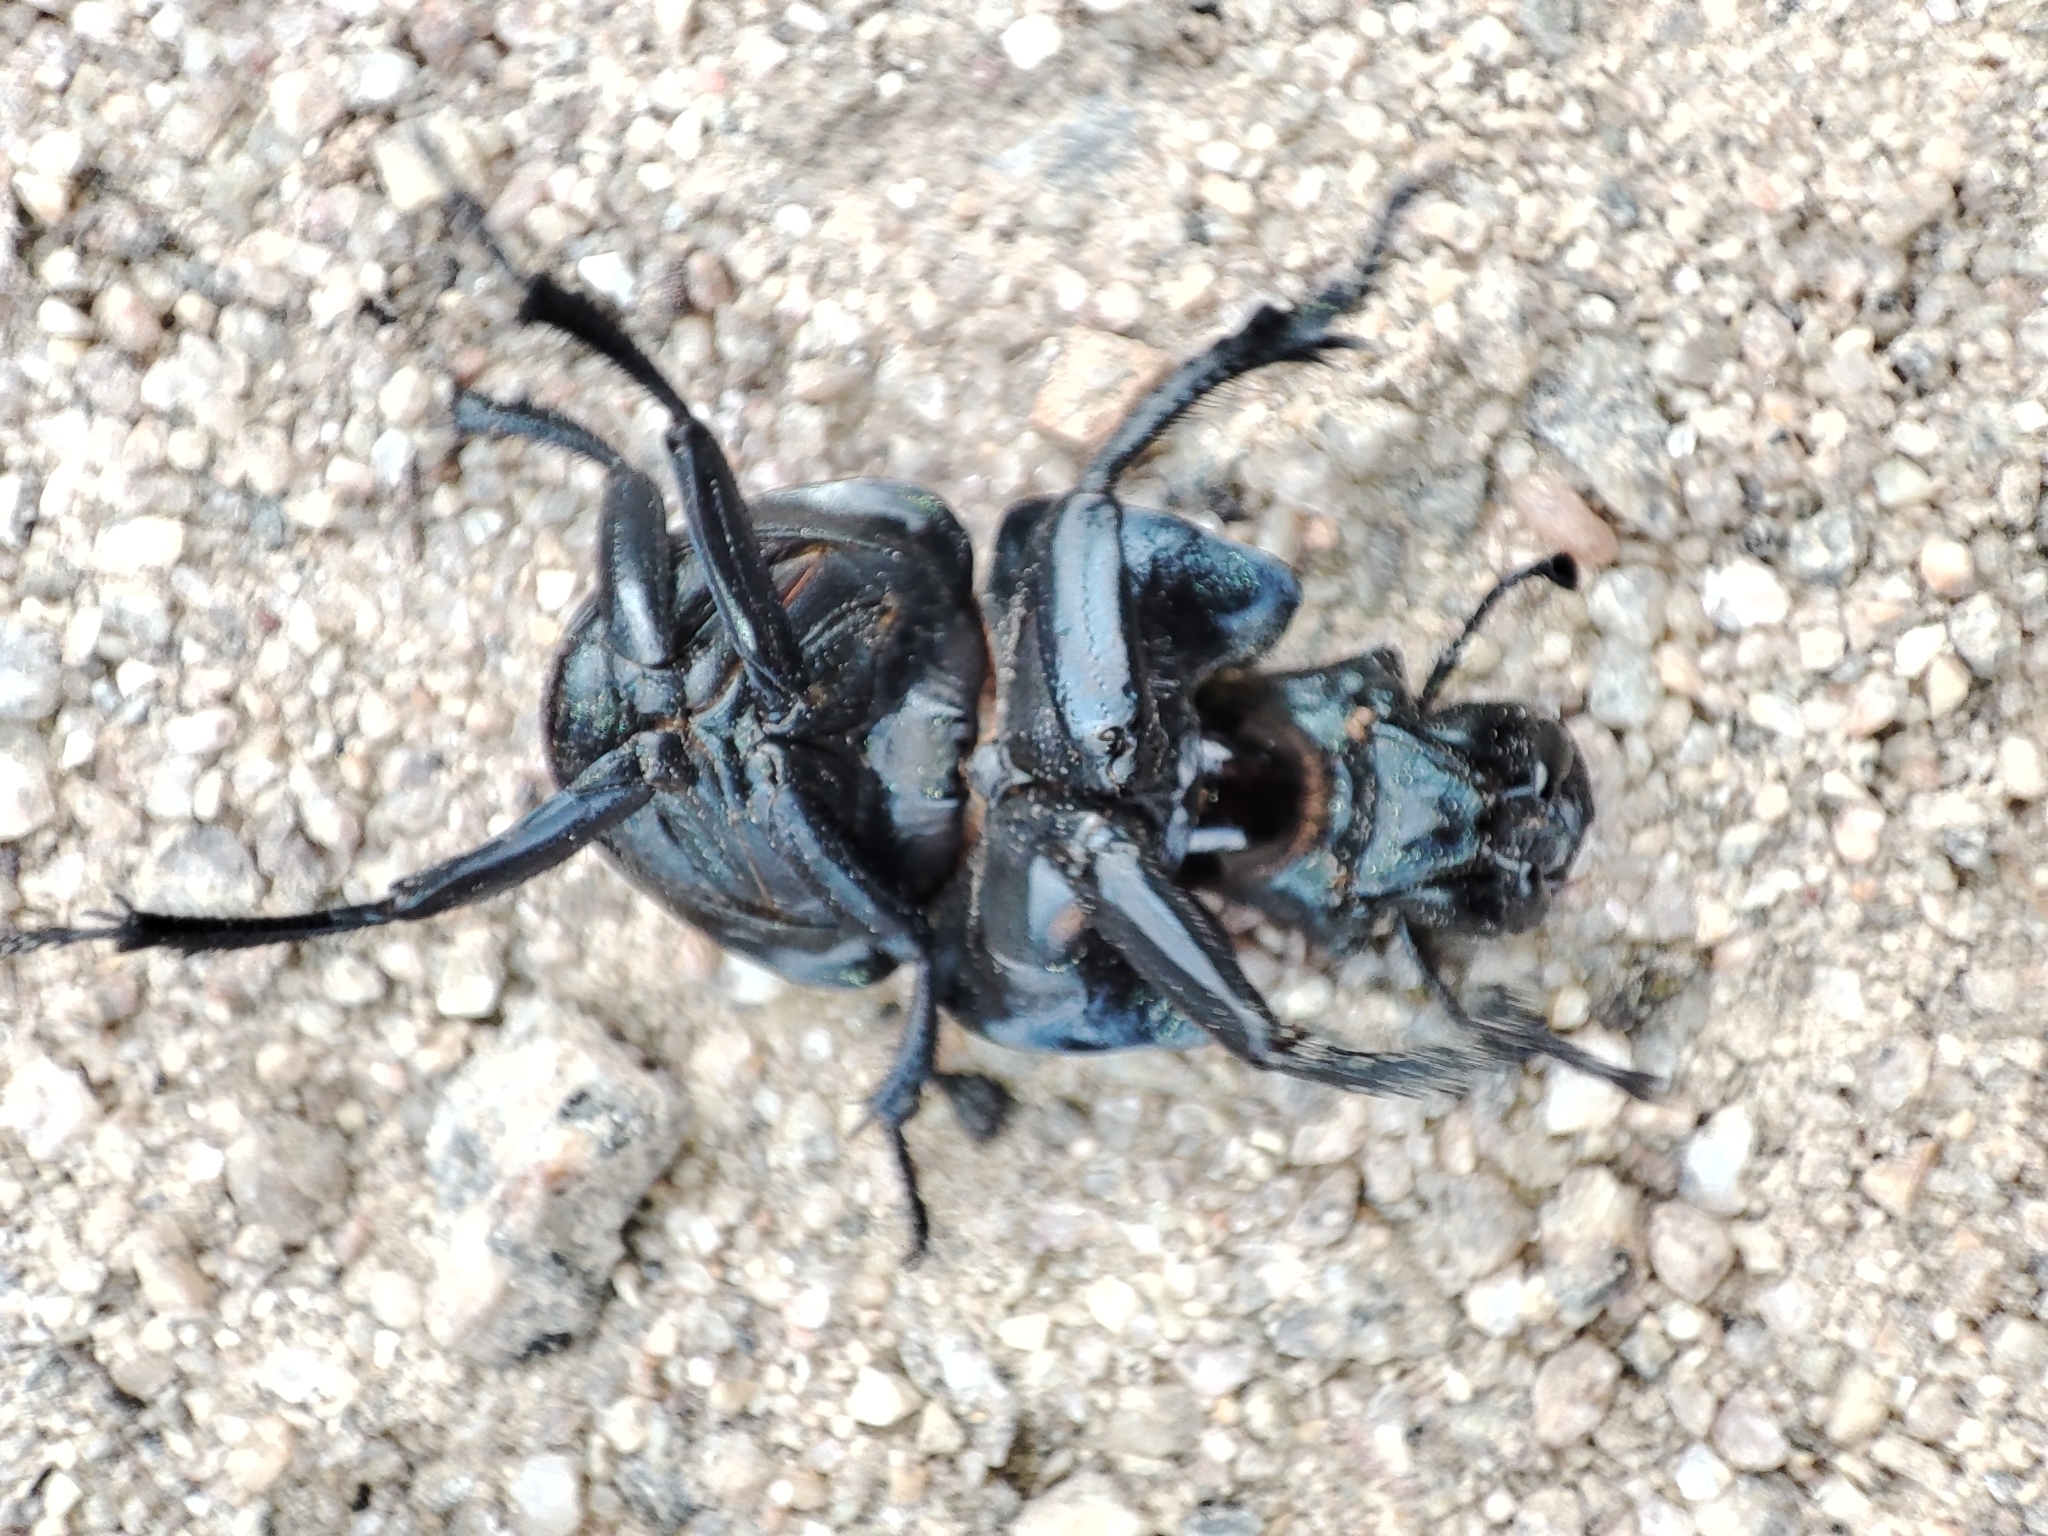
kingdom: Animalia
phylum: Arthropoda
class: Insecta
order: Coleoptera
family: Geotrupidae
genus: Lethrus
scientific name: Lethrus apterus
